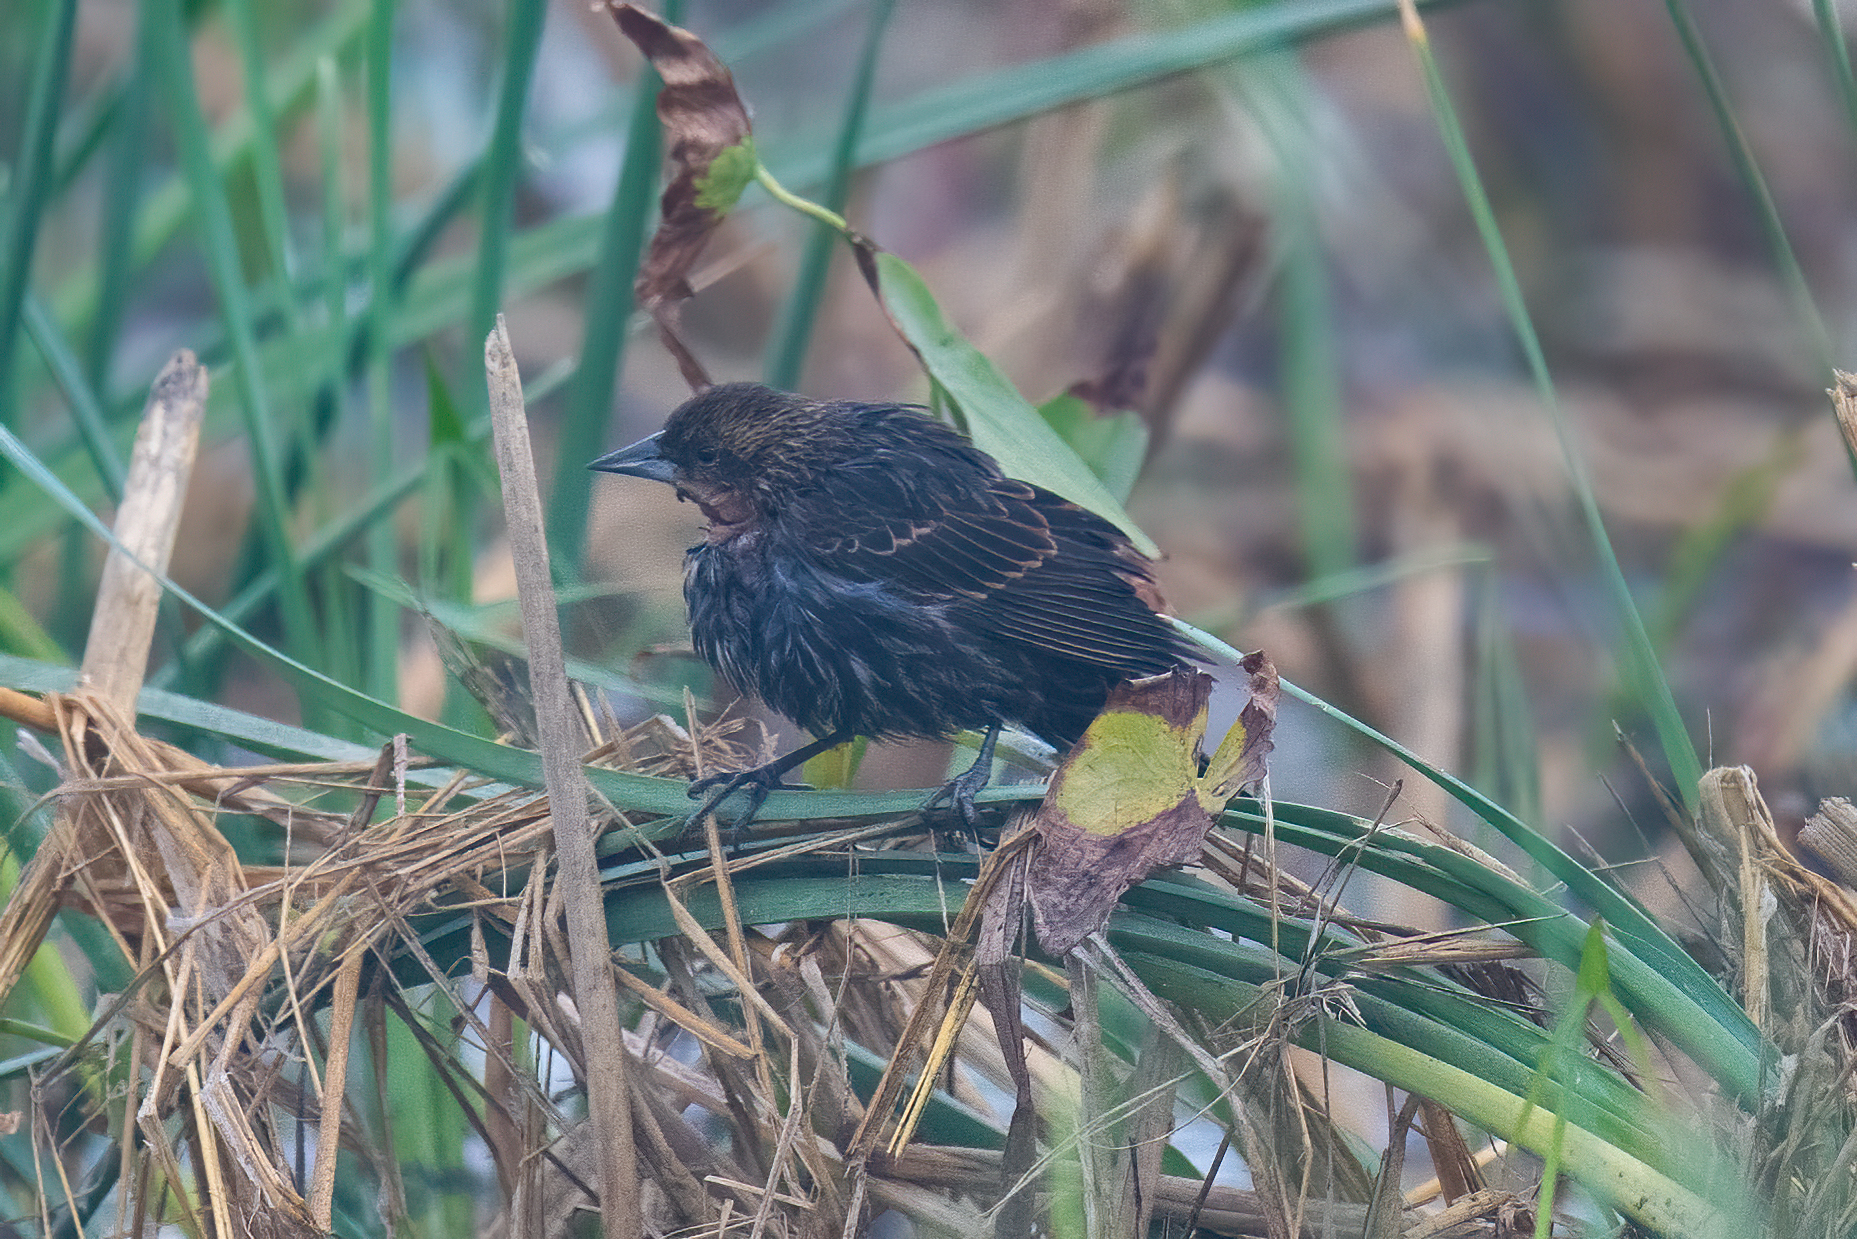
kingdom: Animalia
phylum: Chordata
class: Aves
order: Passeriformes
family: Icteridae
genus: Agelaius
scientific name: Agelaius phoeniceus
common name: Red-winged blackbird
